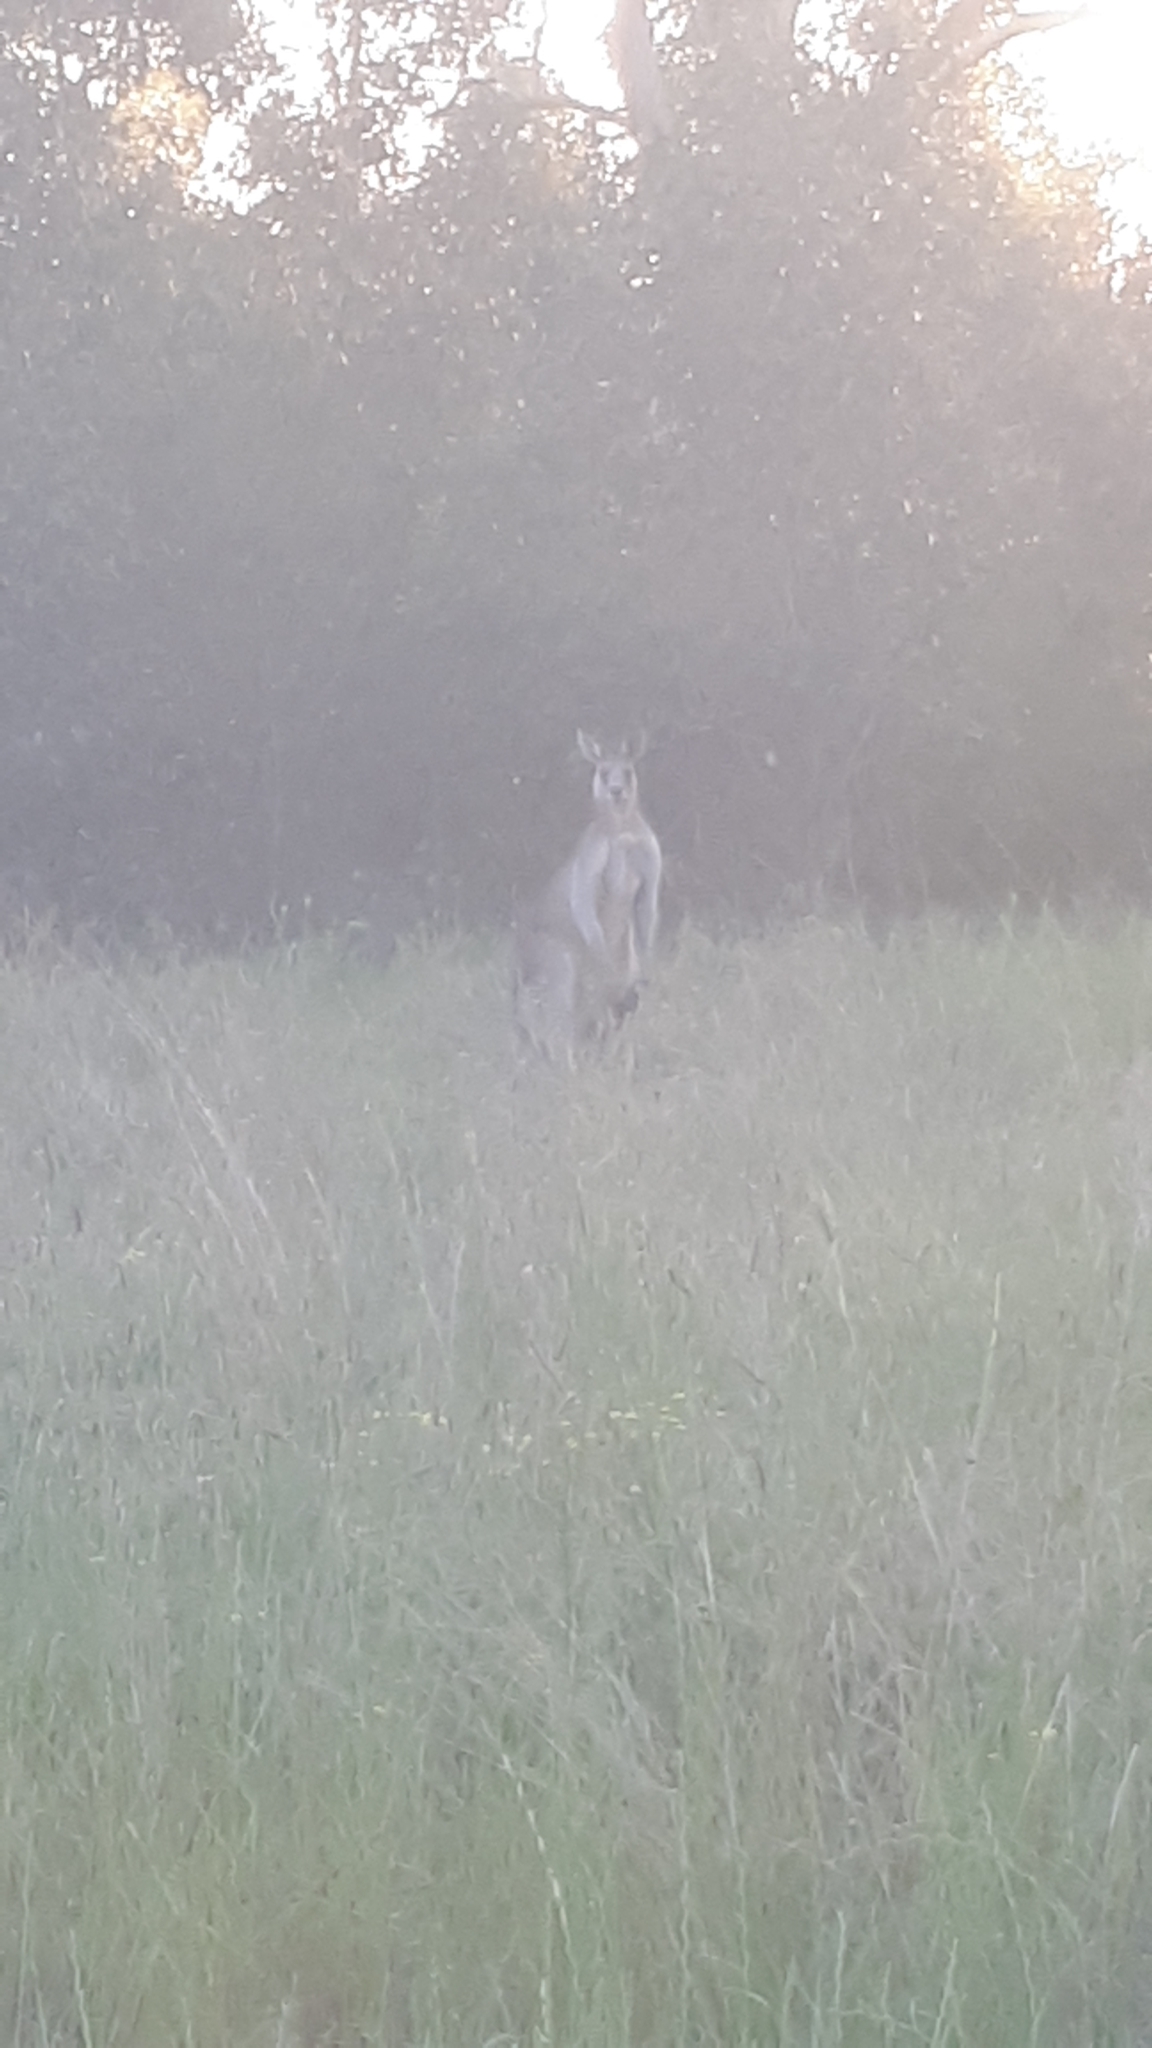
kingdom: Animalia
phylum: Chordata
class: Mammalia
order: Diprotodontia
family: Macropodidae
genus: Macropus
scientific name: Macropus giganteus
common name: Eastern grey kangaroo
